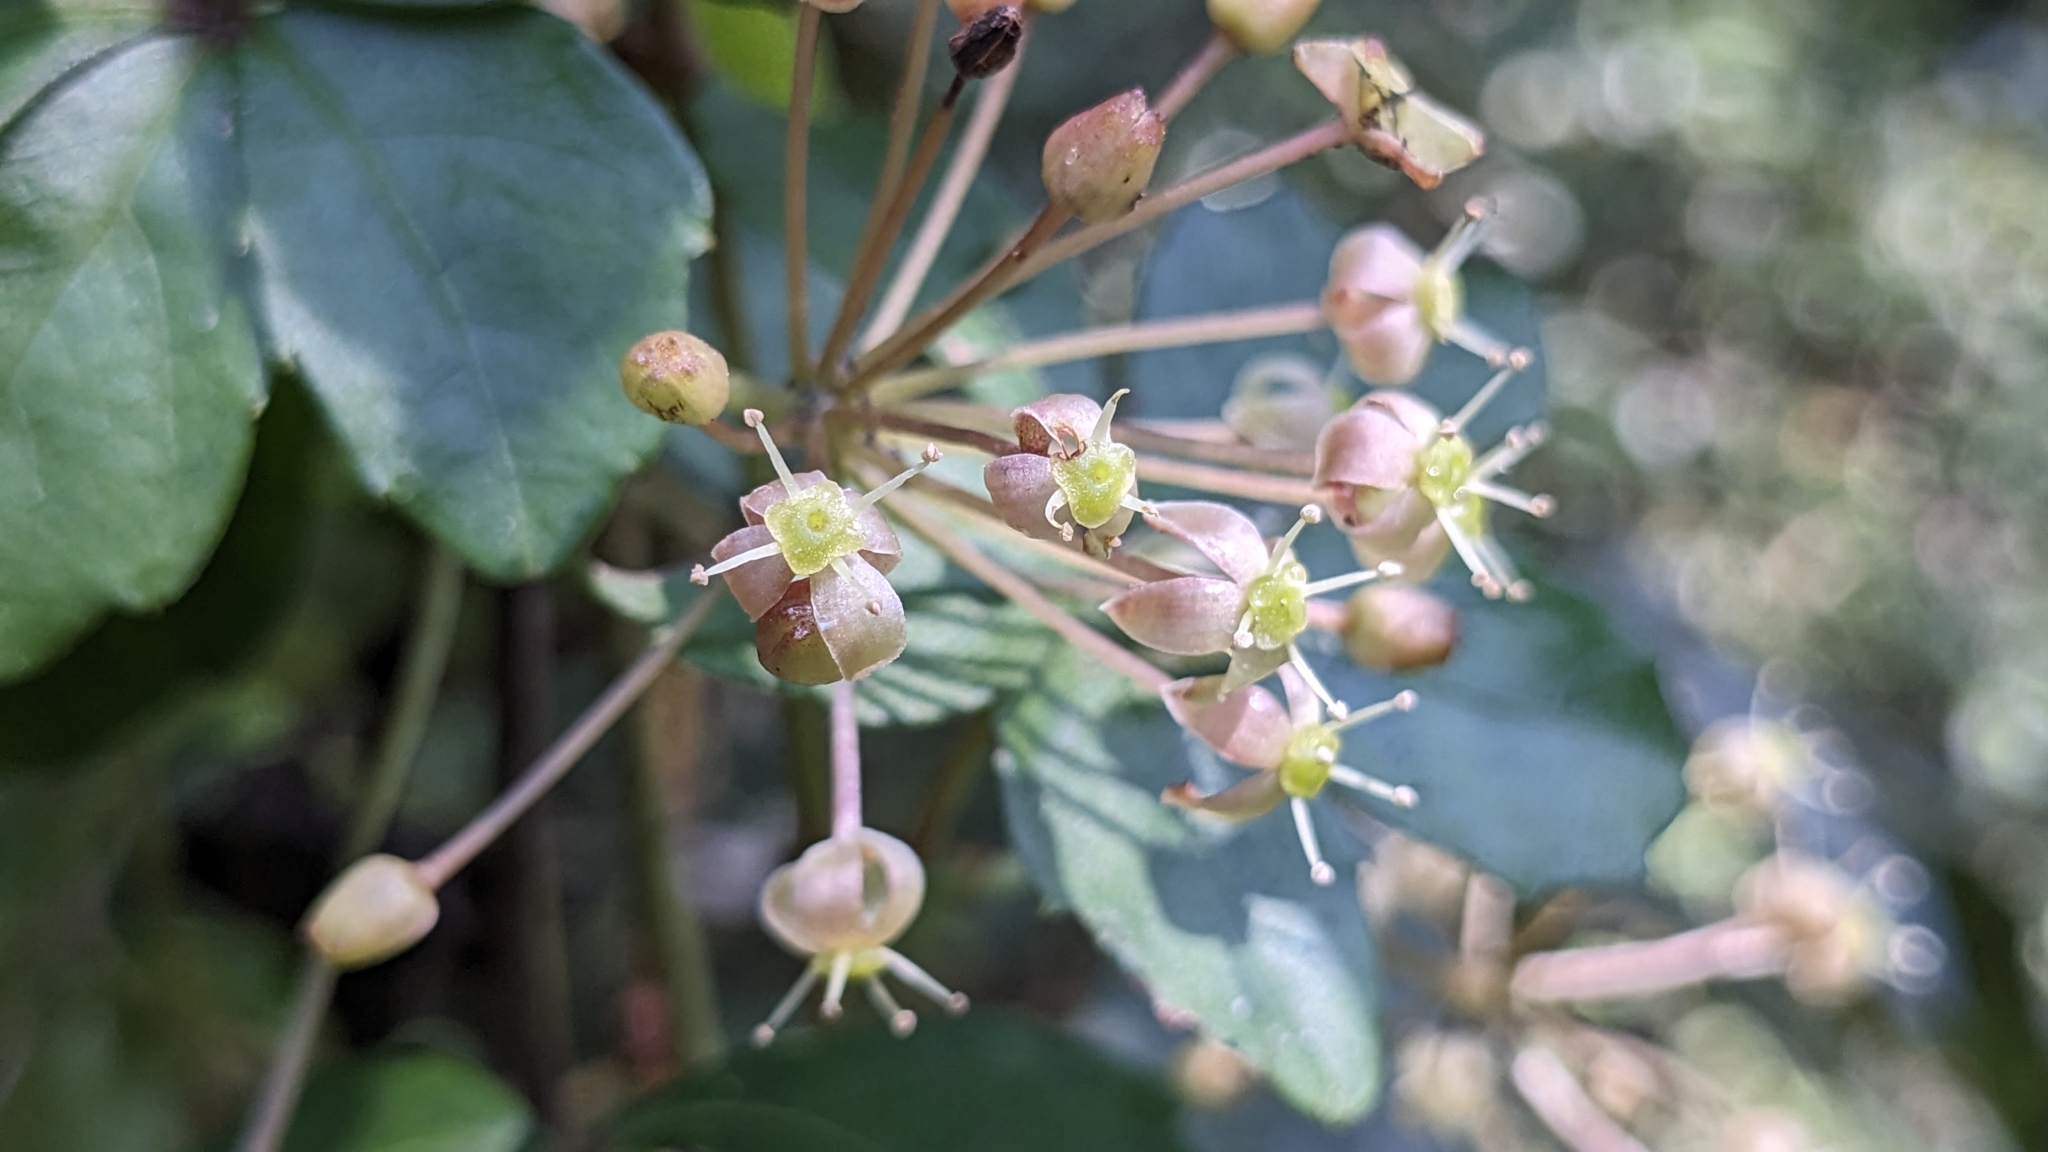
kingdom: Plantae
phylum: Tracheophyta
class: Magnoliopsida
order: Vitales
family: Vitaceae
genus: Tetrastigma
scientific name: Tetrastigma obtectum
